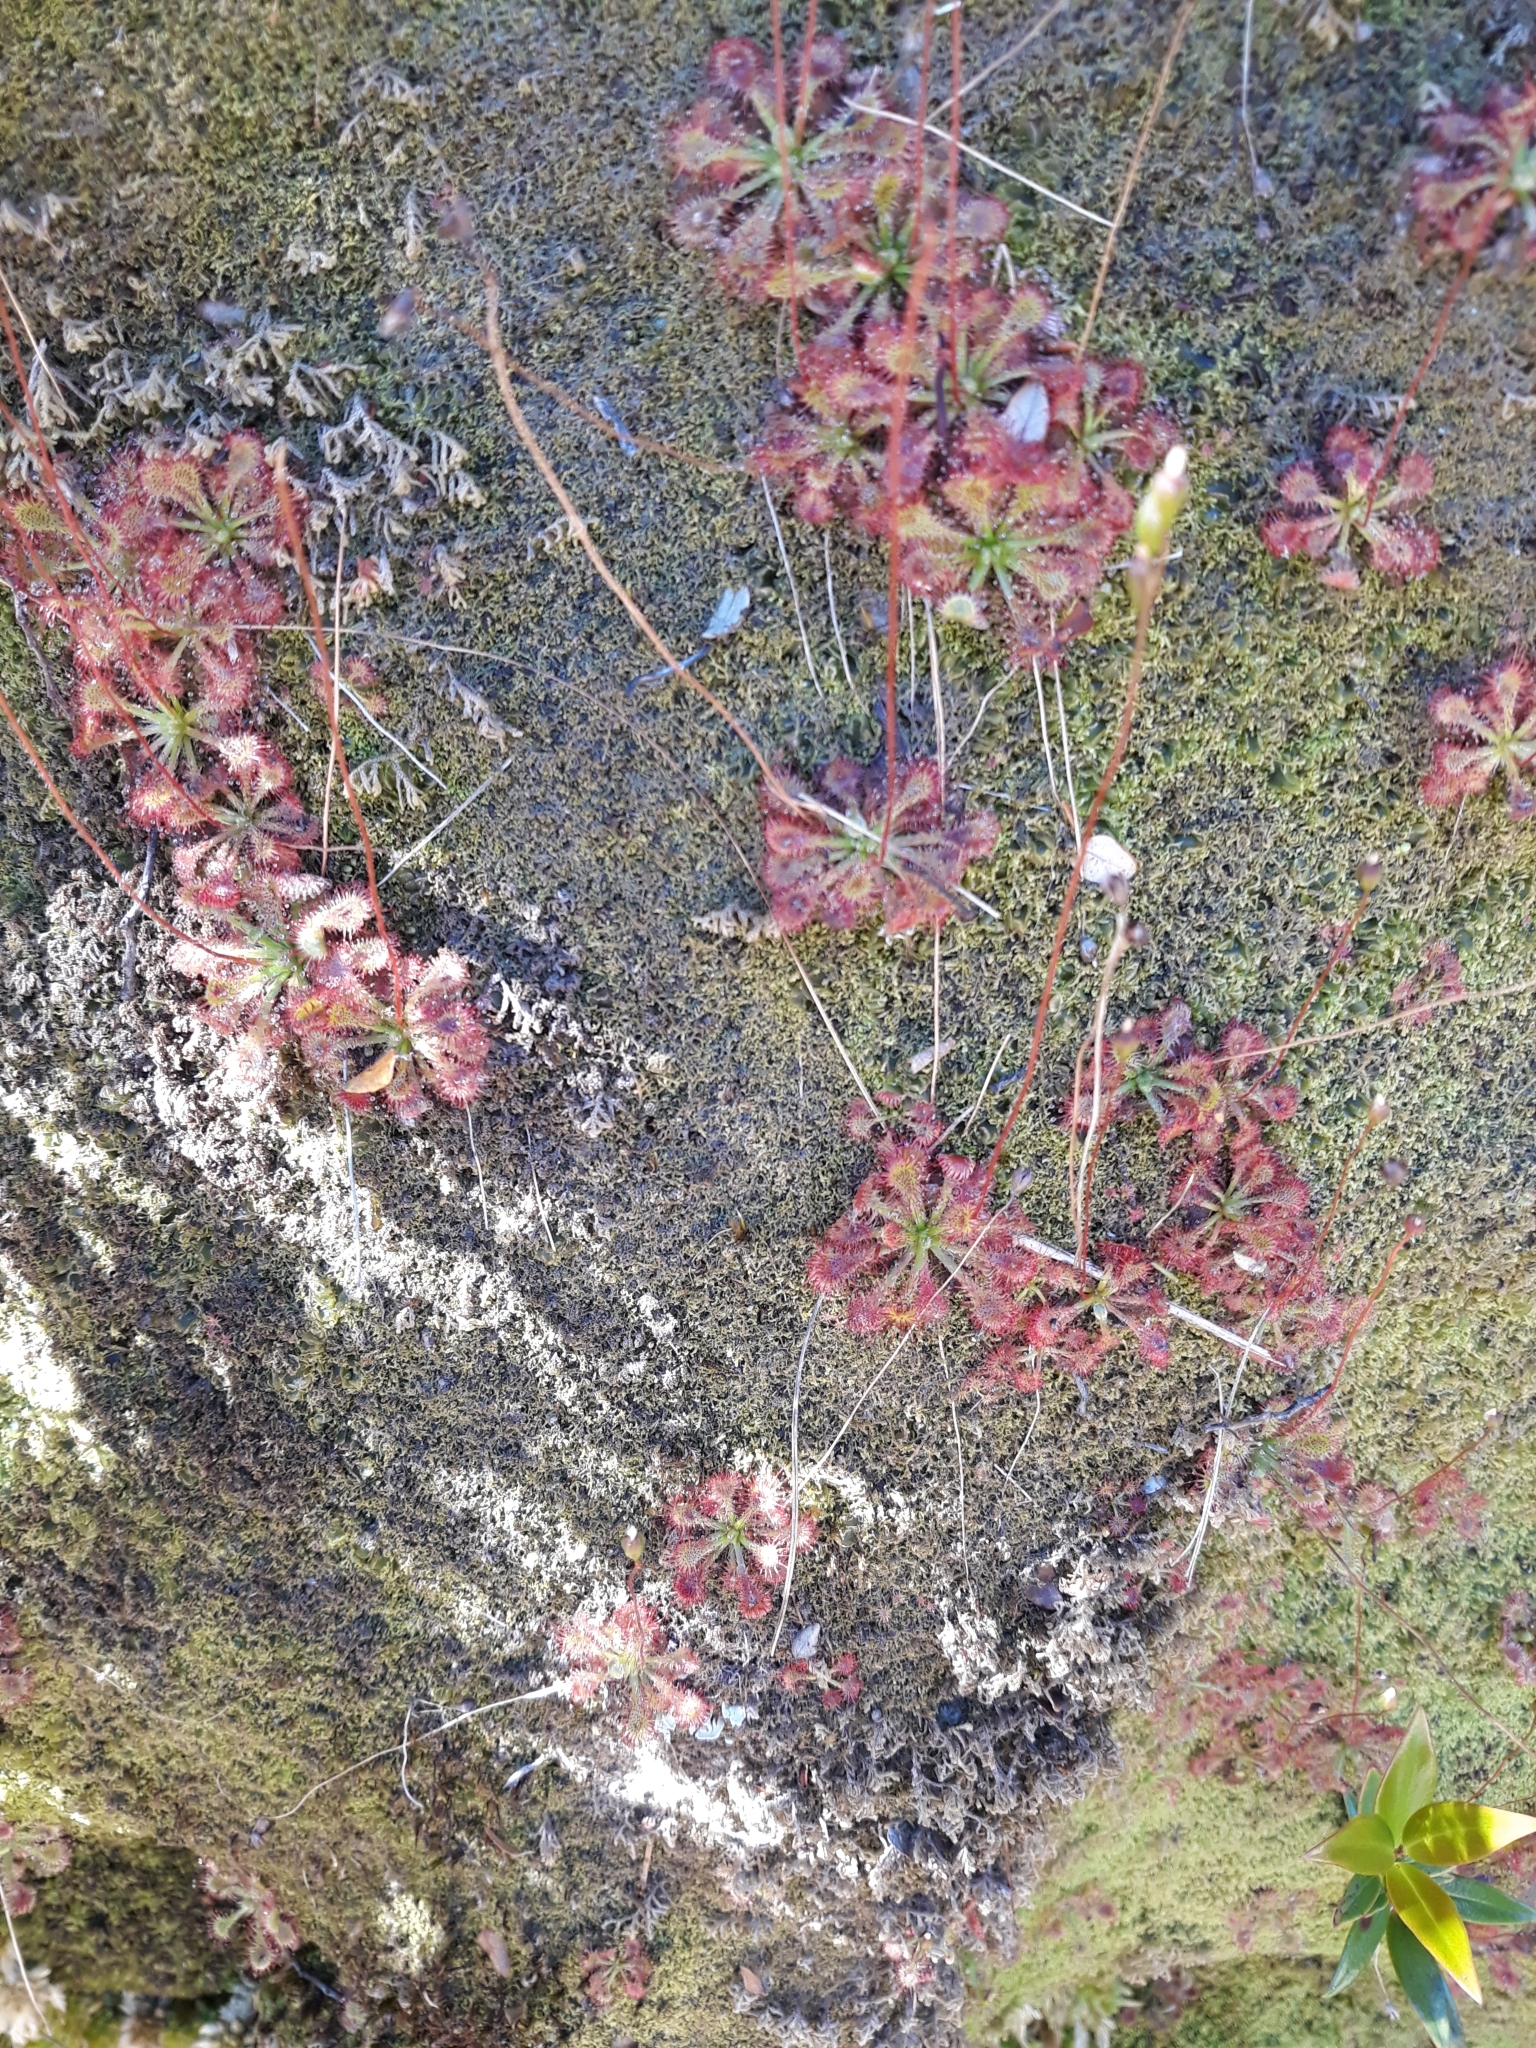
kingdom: Plantae
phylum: Tracheophyta
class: Magnoliopsida
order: Caryophyllales
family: Droseraceae
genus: Drosera
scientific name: Drosera spatulata
